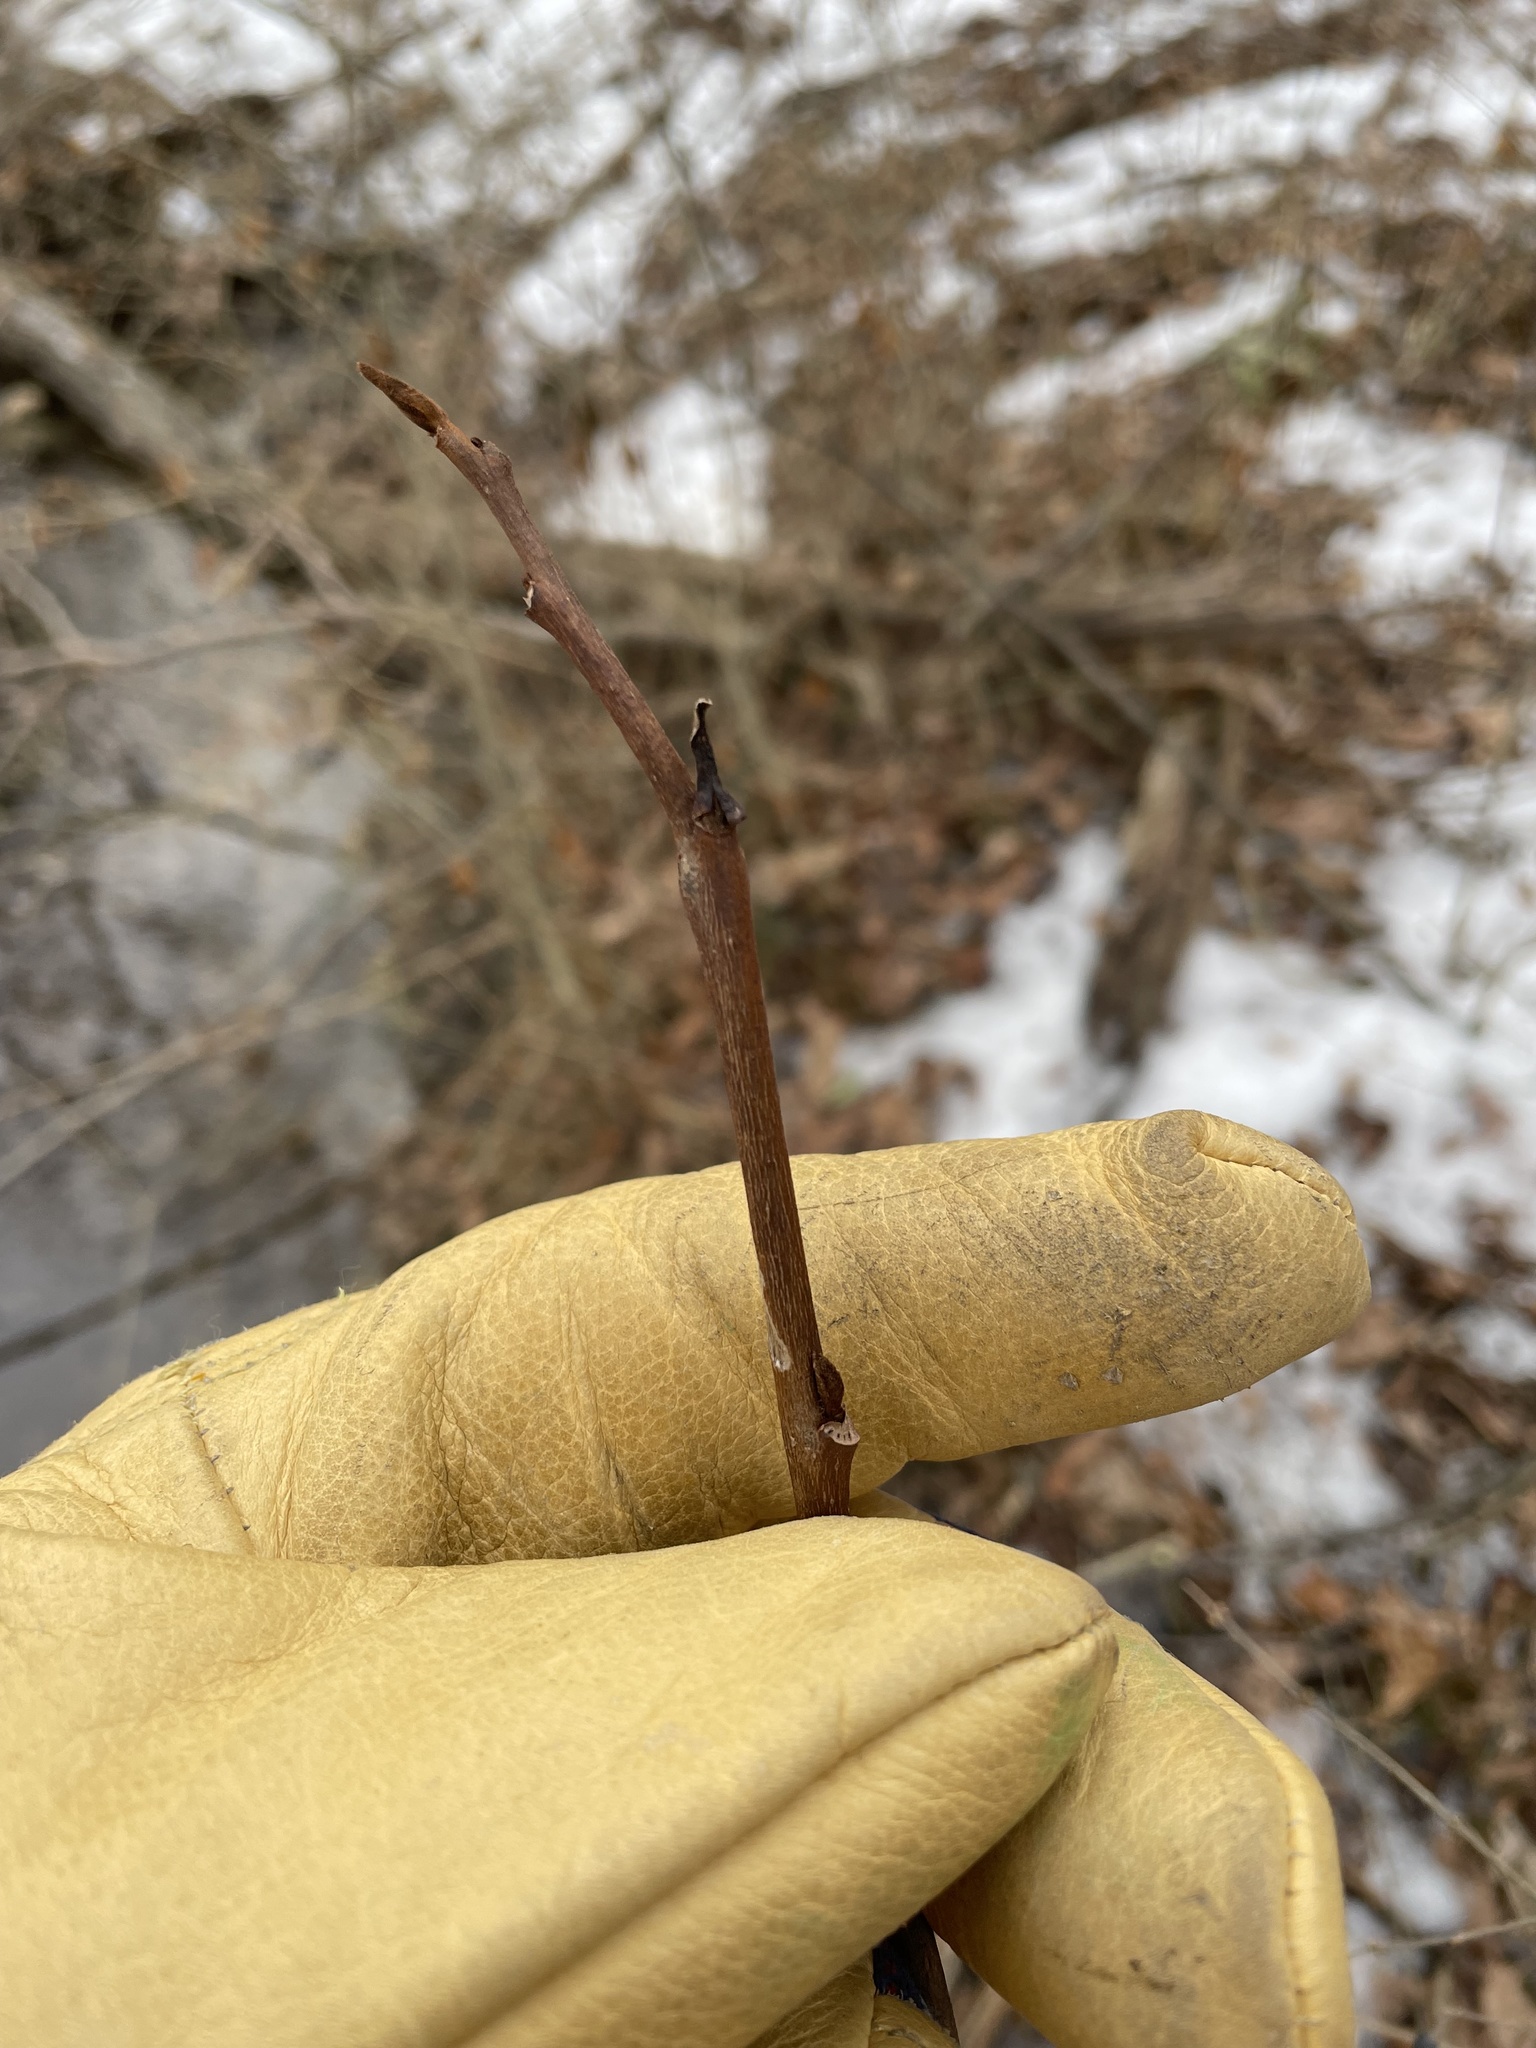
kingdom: Plantae
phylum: Tracheophyta
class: Magnoliopsida
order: Magnoliales
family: Annonaceae
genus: Asimina
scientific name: Asimina triloba
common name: Dog-banana
